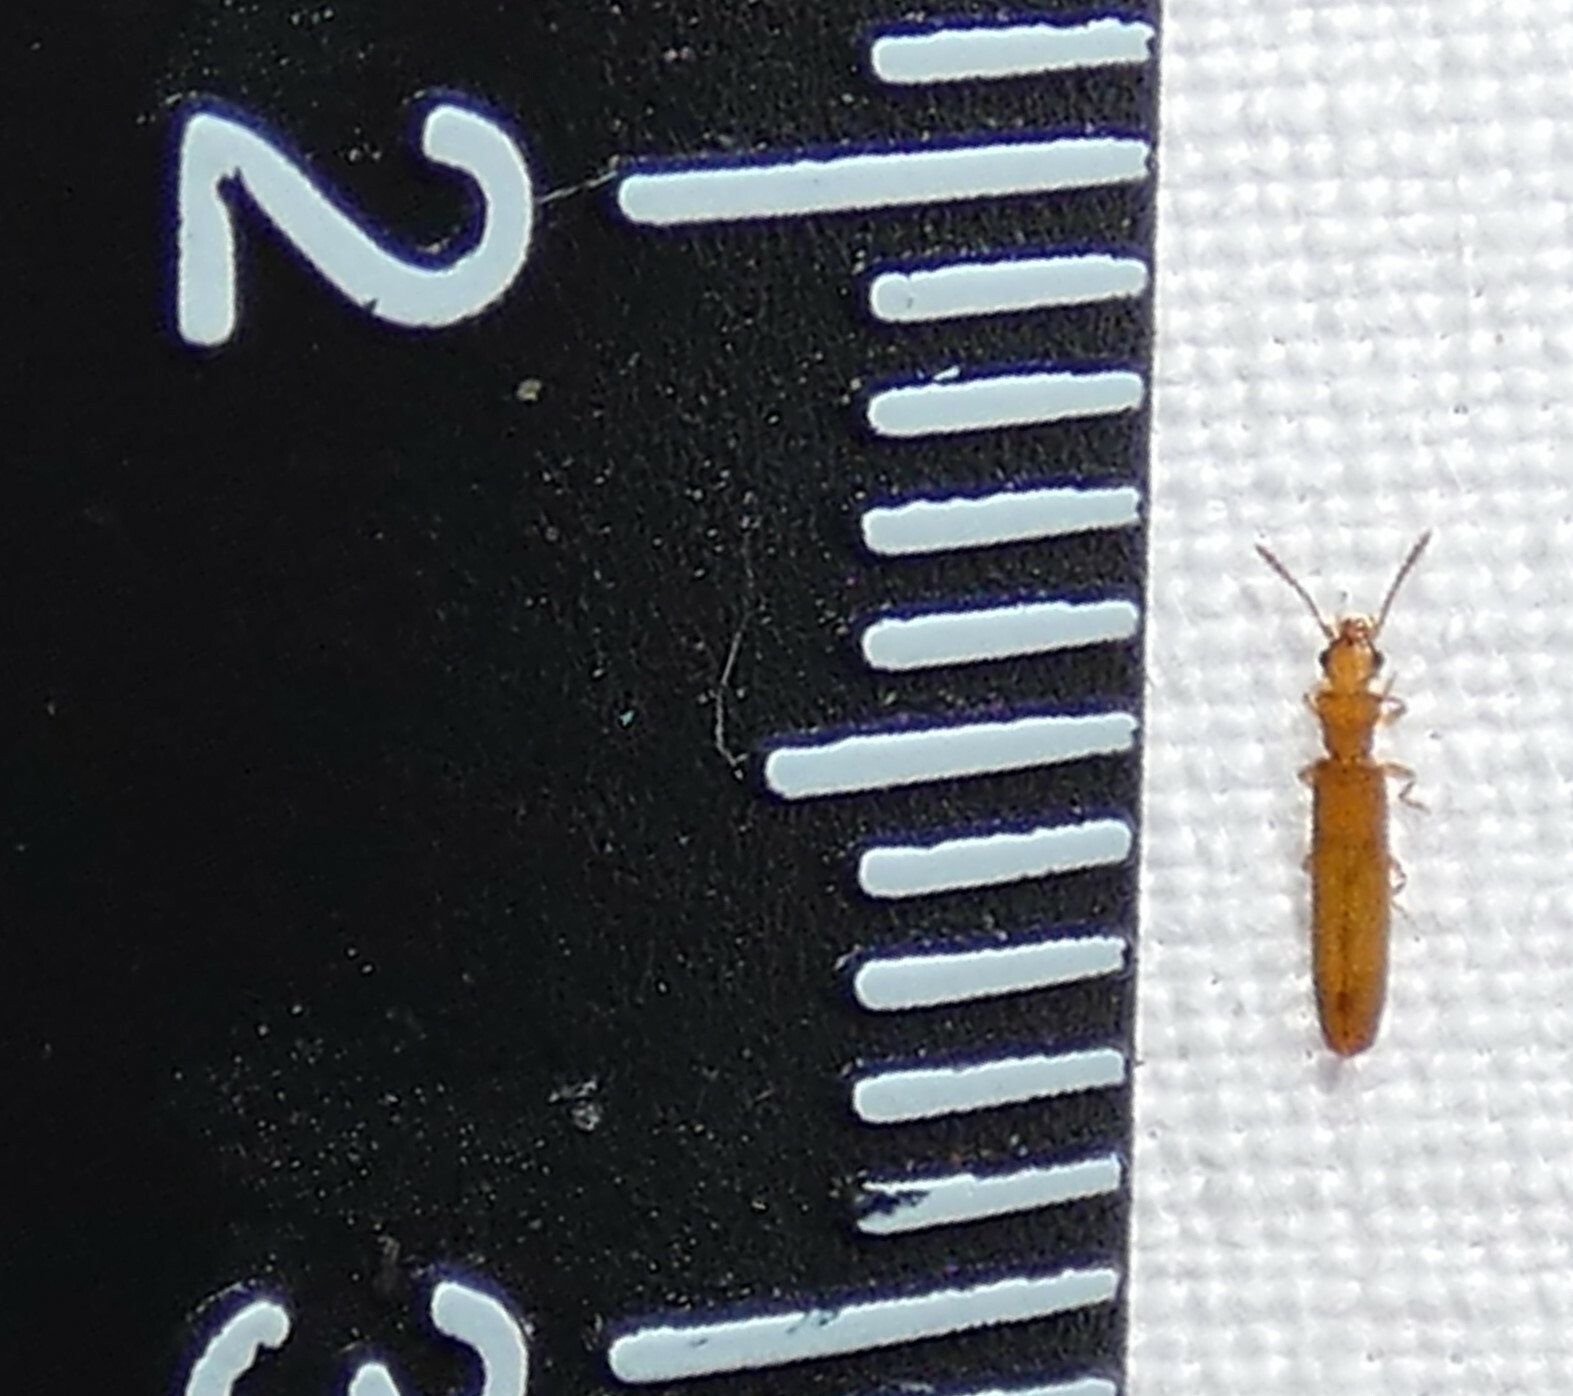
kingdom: Animalia
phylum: Arthropoda
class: Insecta
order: Coleoptera
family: Mycteridae
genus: Hemipeplus
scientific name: Hemipeplus microphthalmus
